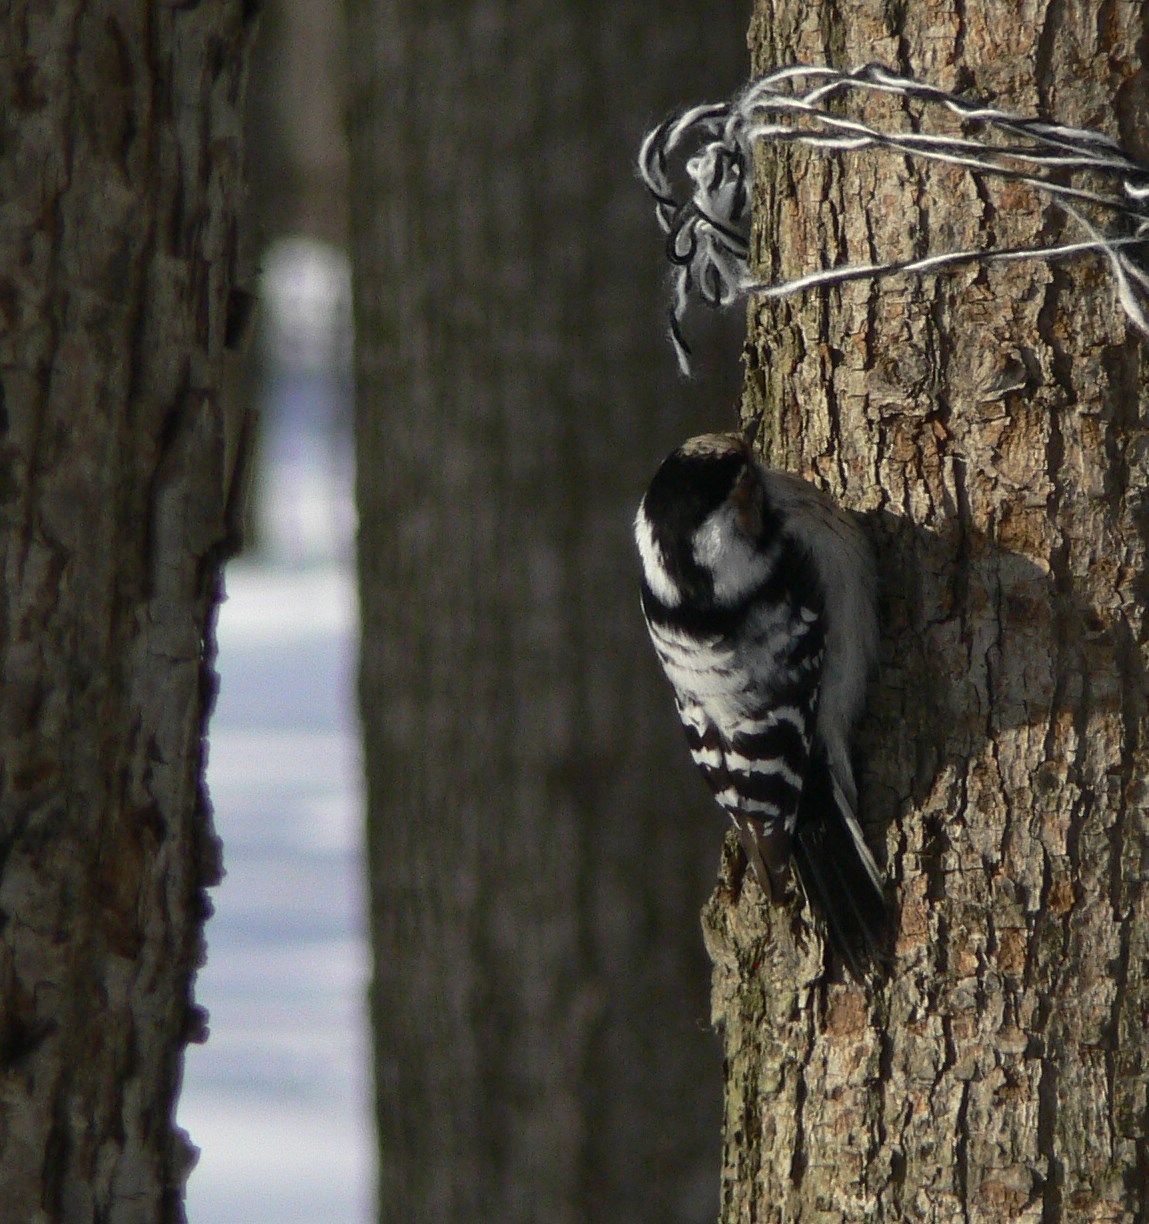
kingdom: Animalia
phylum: Chordata
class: Aves
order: Piciformes
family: Picidae
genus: Dryobates
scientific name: Dryobates minor
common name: Lesser spotted woodpecker
